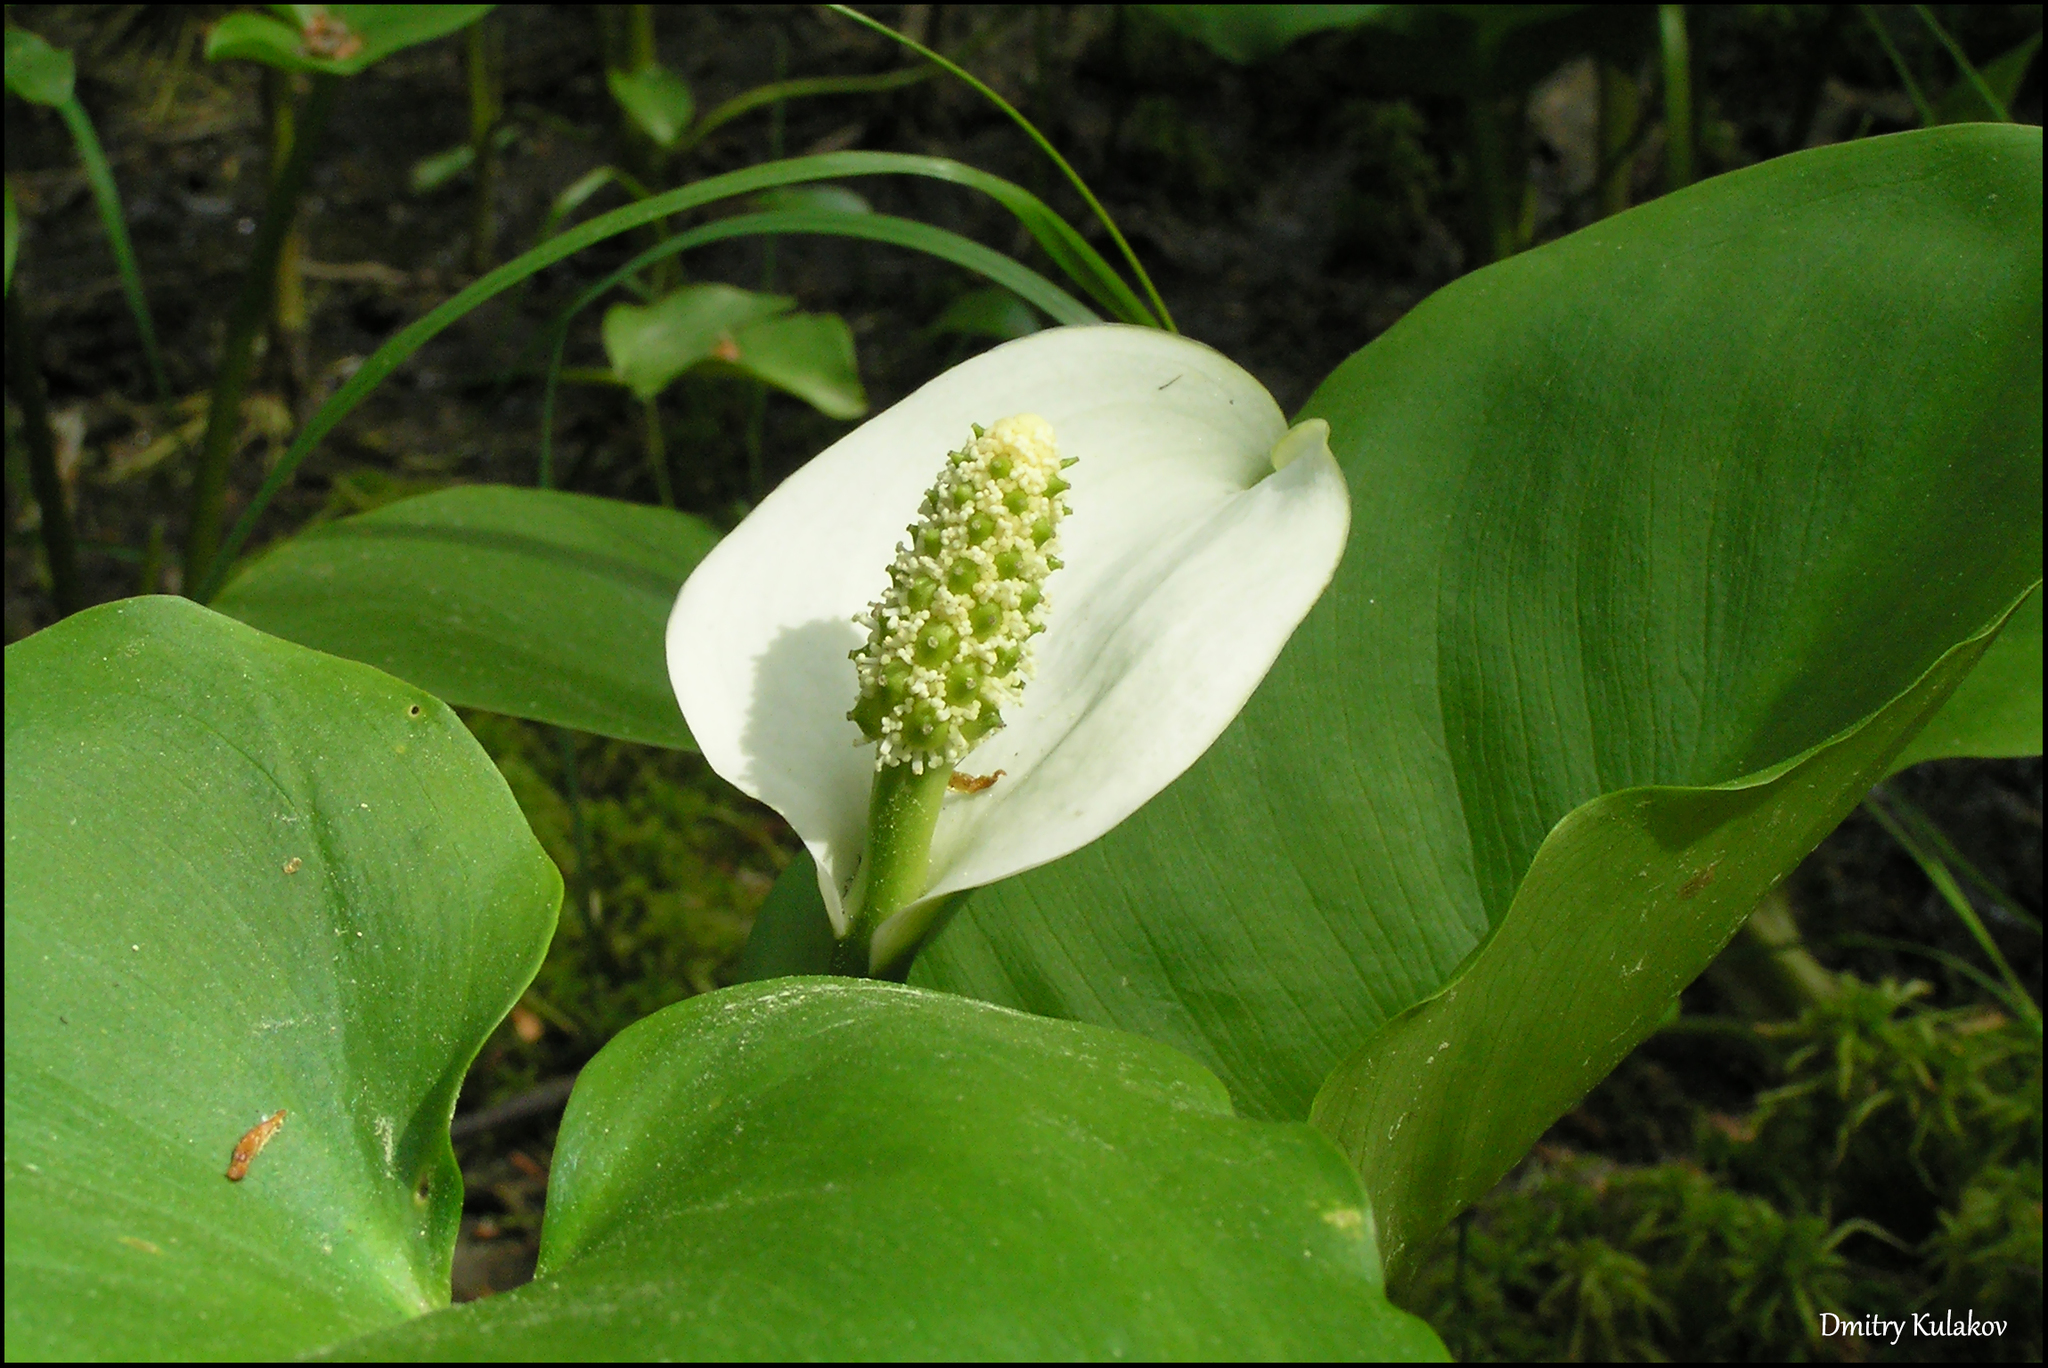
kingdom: Plantae
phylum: Tracheophyta
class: Liliopsida
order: Alismatales
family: Araceae
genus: Calla
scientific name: Calla palustris
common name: Bog arum
